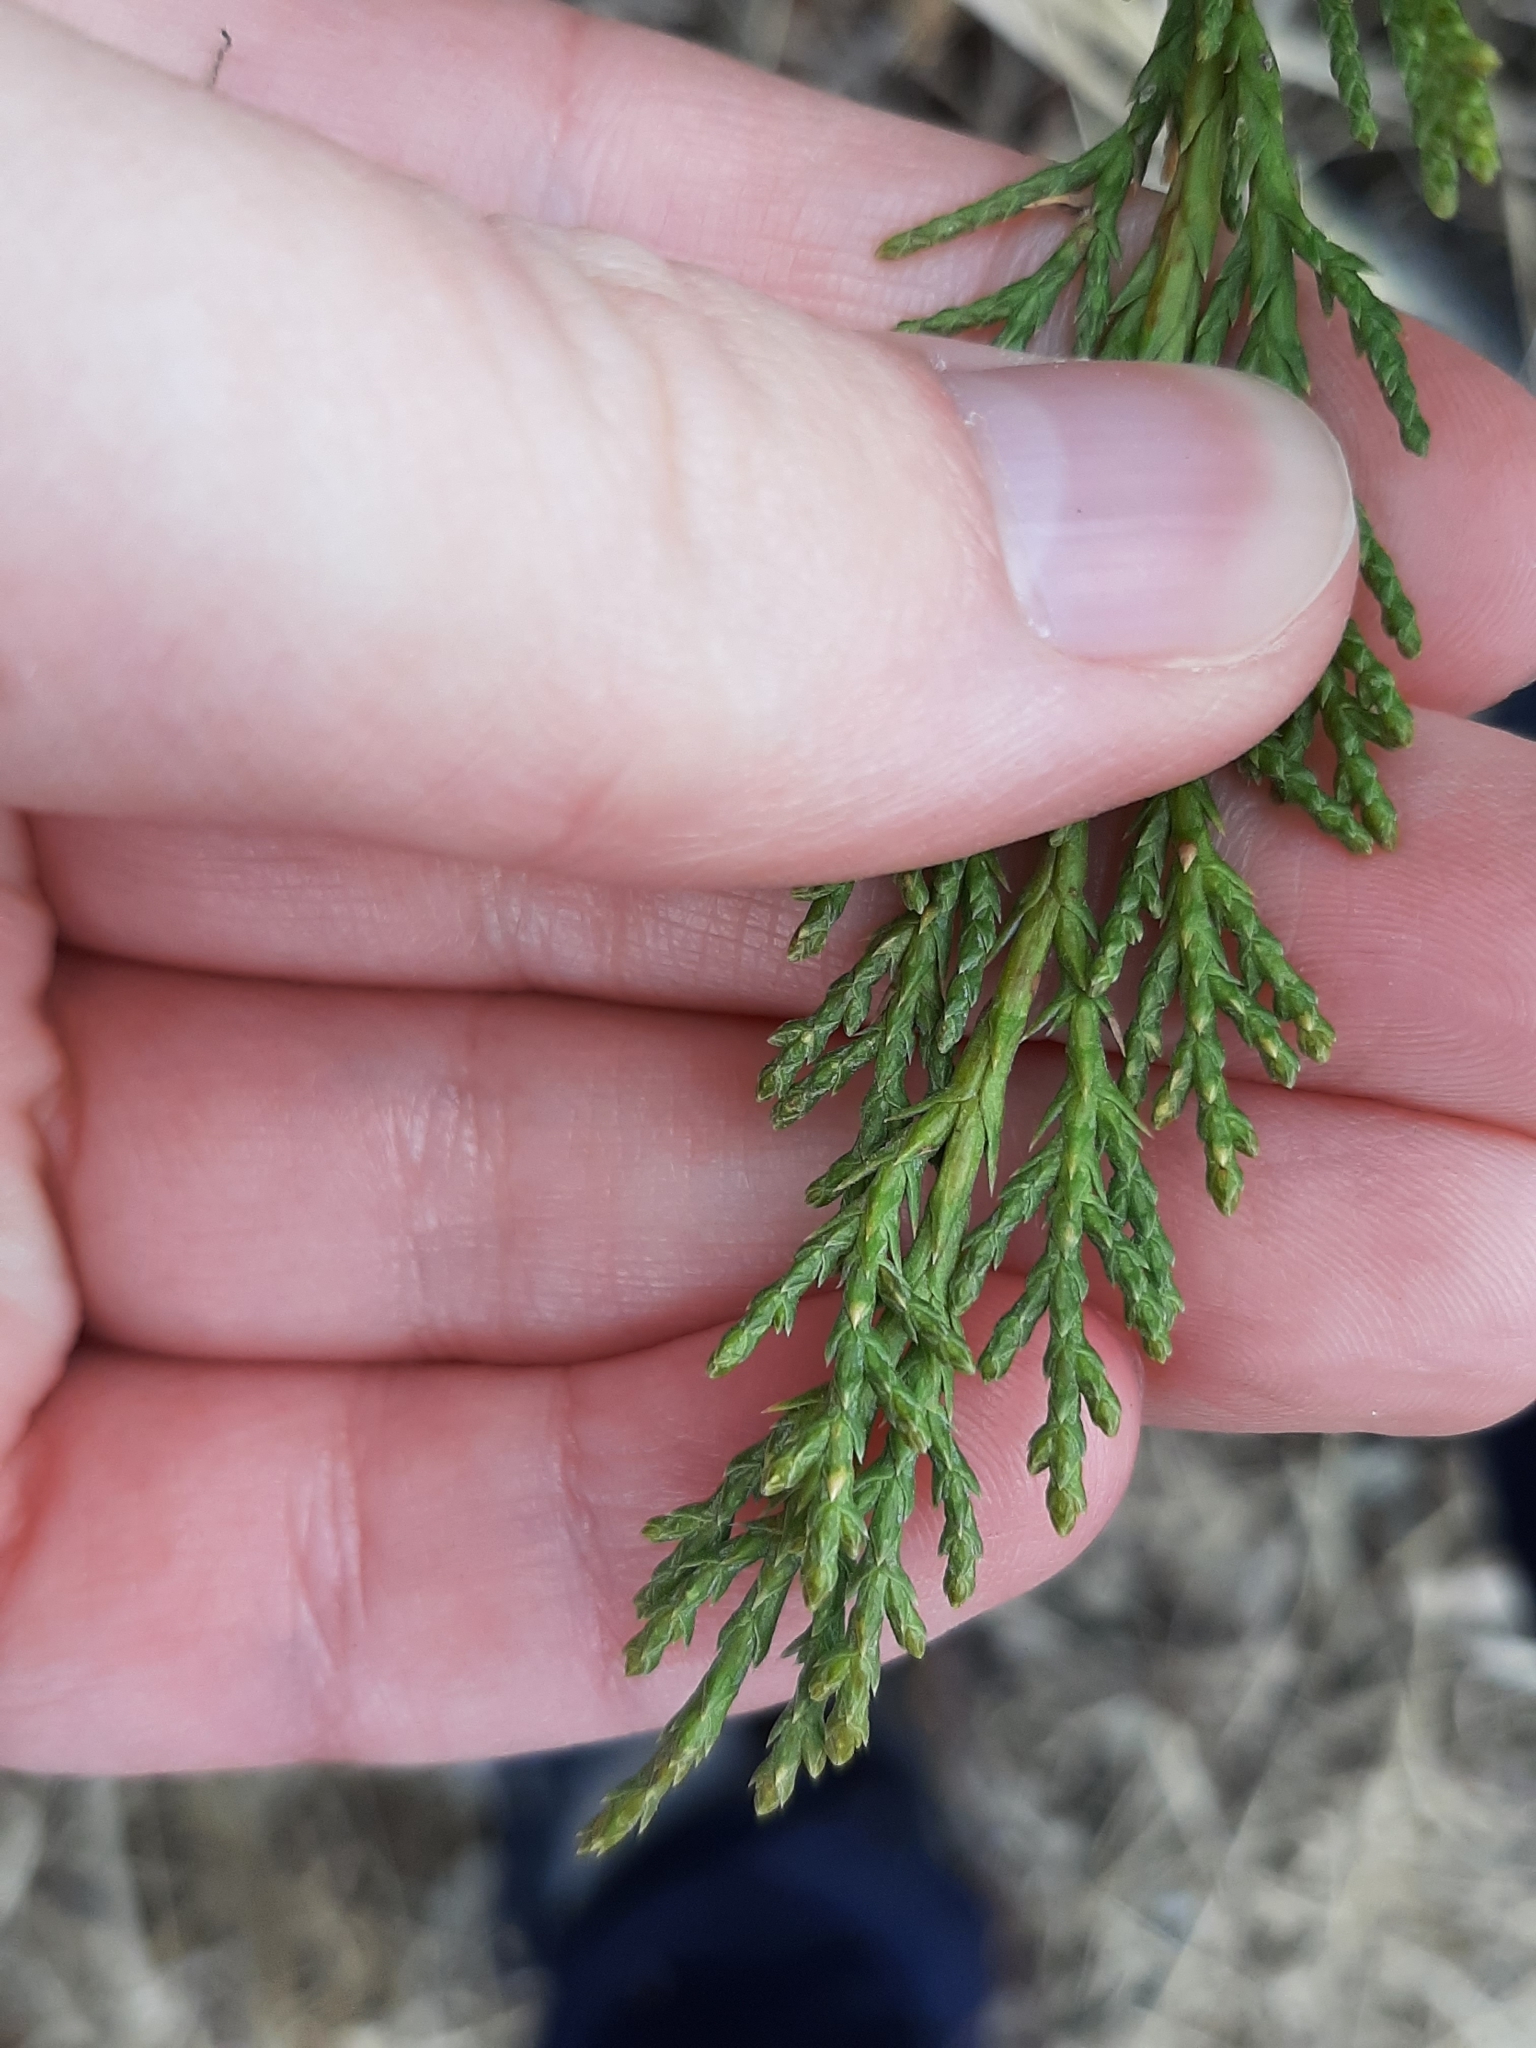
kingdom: Plantae
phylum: Tracheophyta
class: Pinopsida
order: Pinales
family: Cupressaceae
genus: Juniperus
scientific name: Juniperus horizontalis
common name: Creeping juniper
